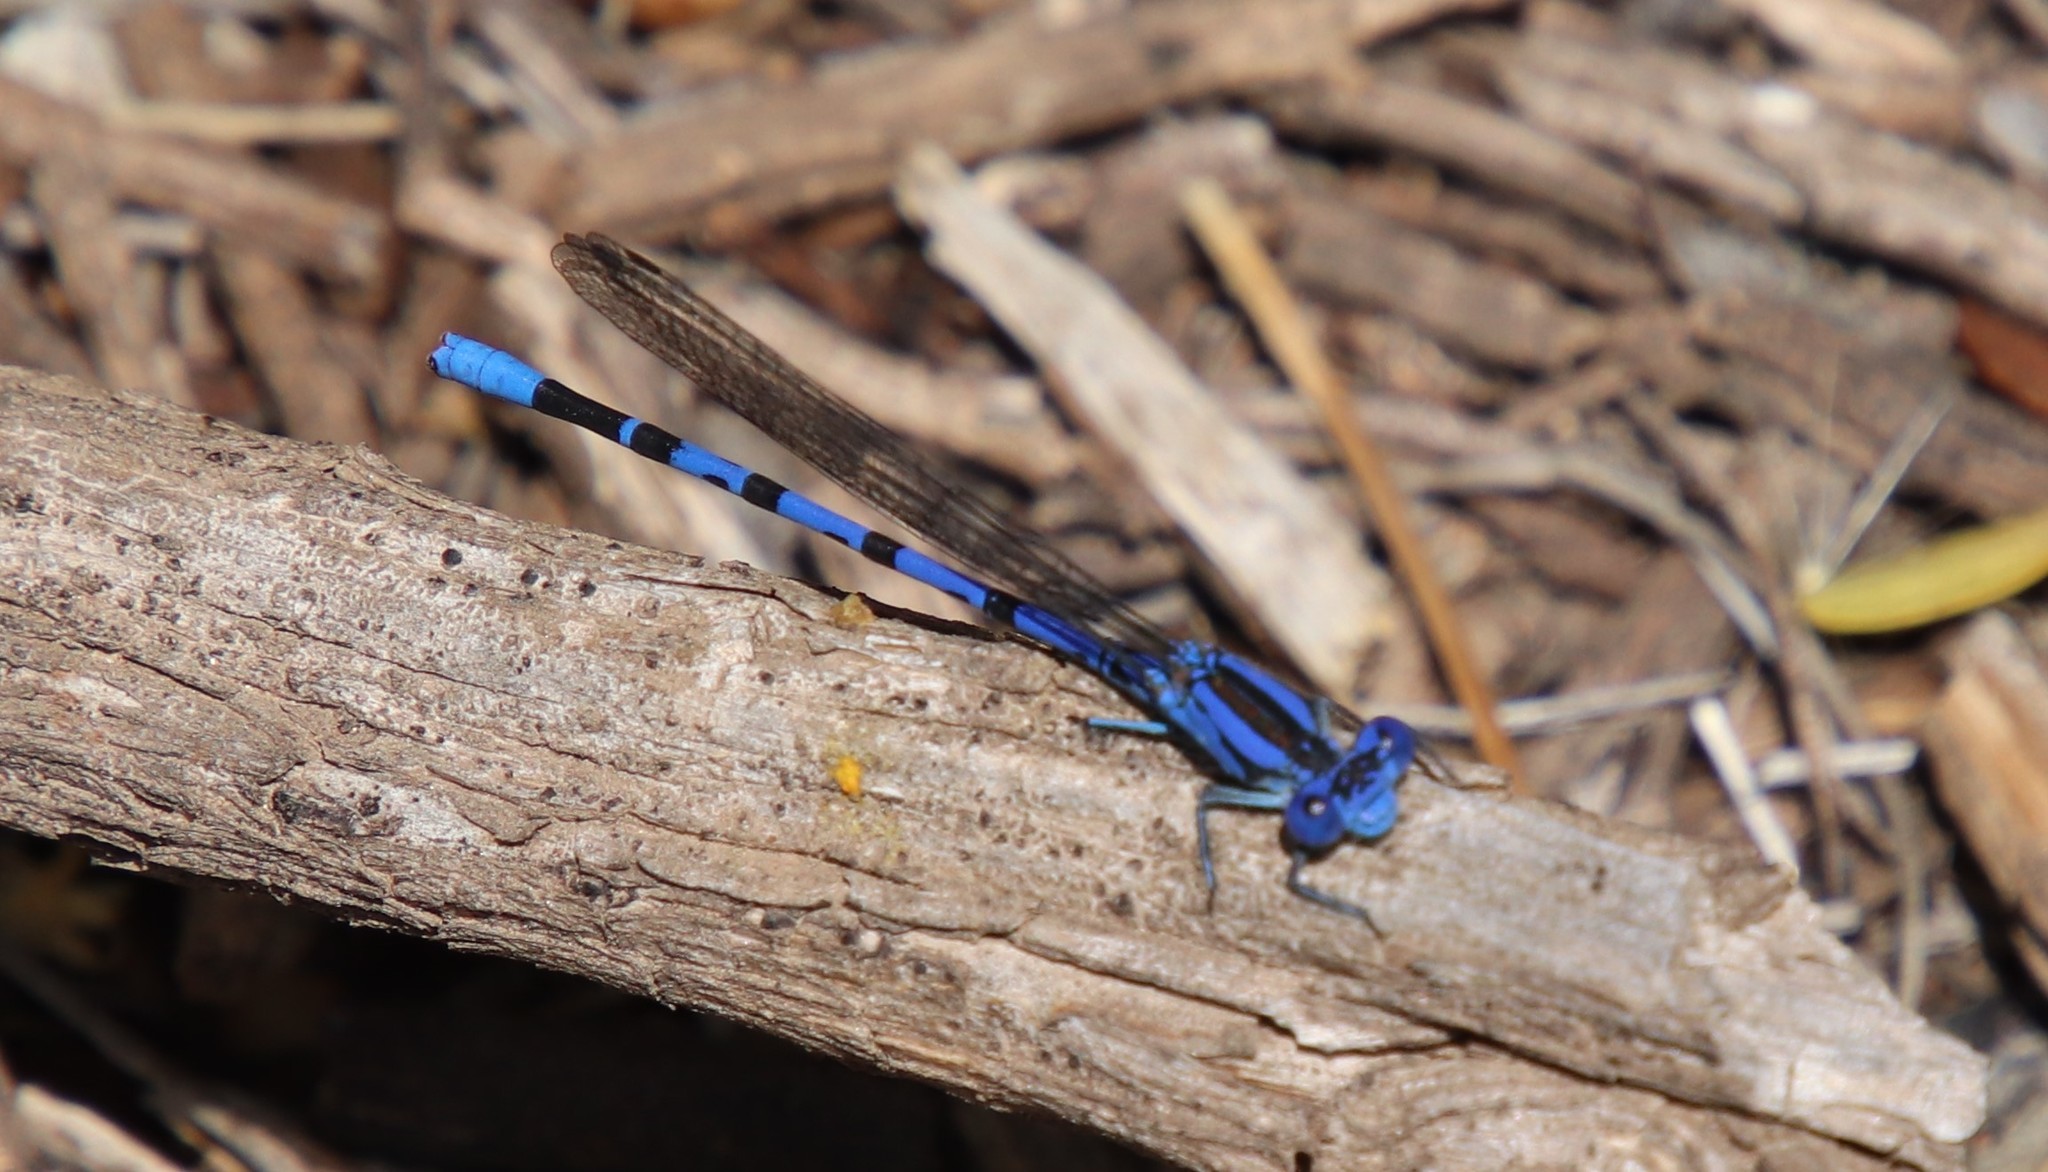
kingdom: Animalia
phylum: Arthropoda
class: Insecta
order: Odonata
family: Coenagrionidae
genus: Argia
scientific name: Argia vivida
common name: Vivid dancer
